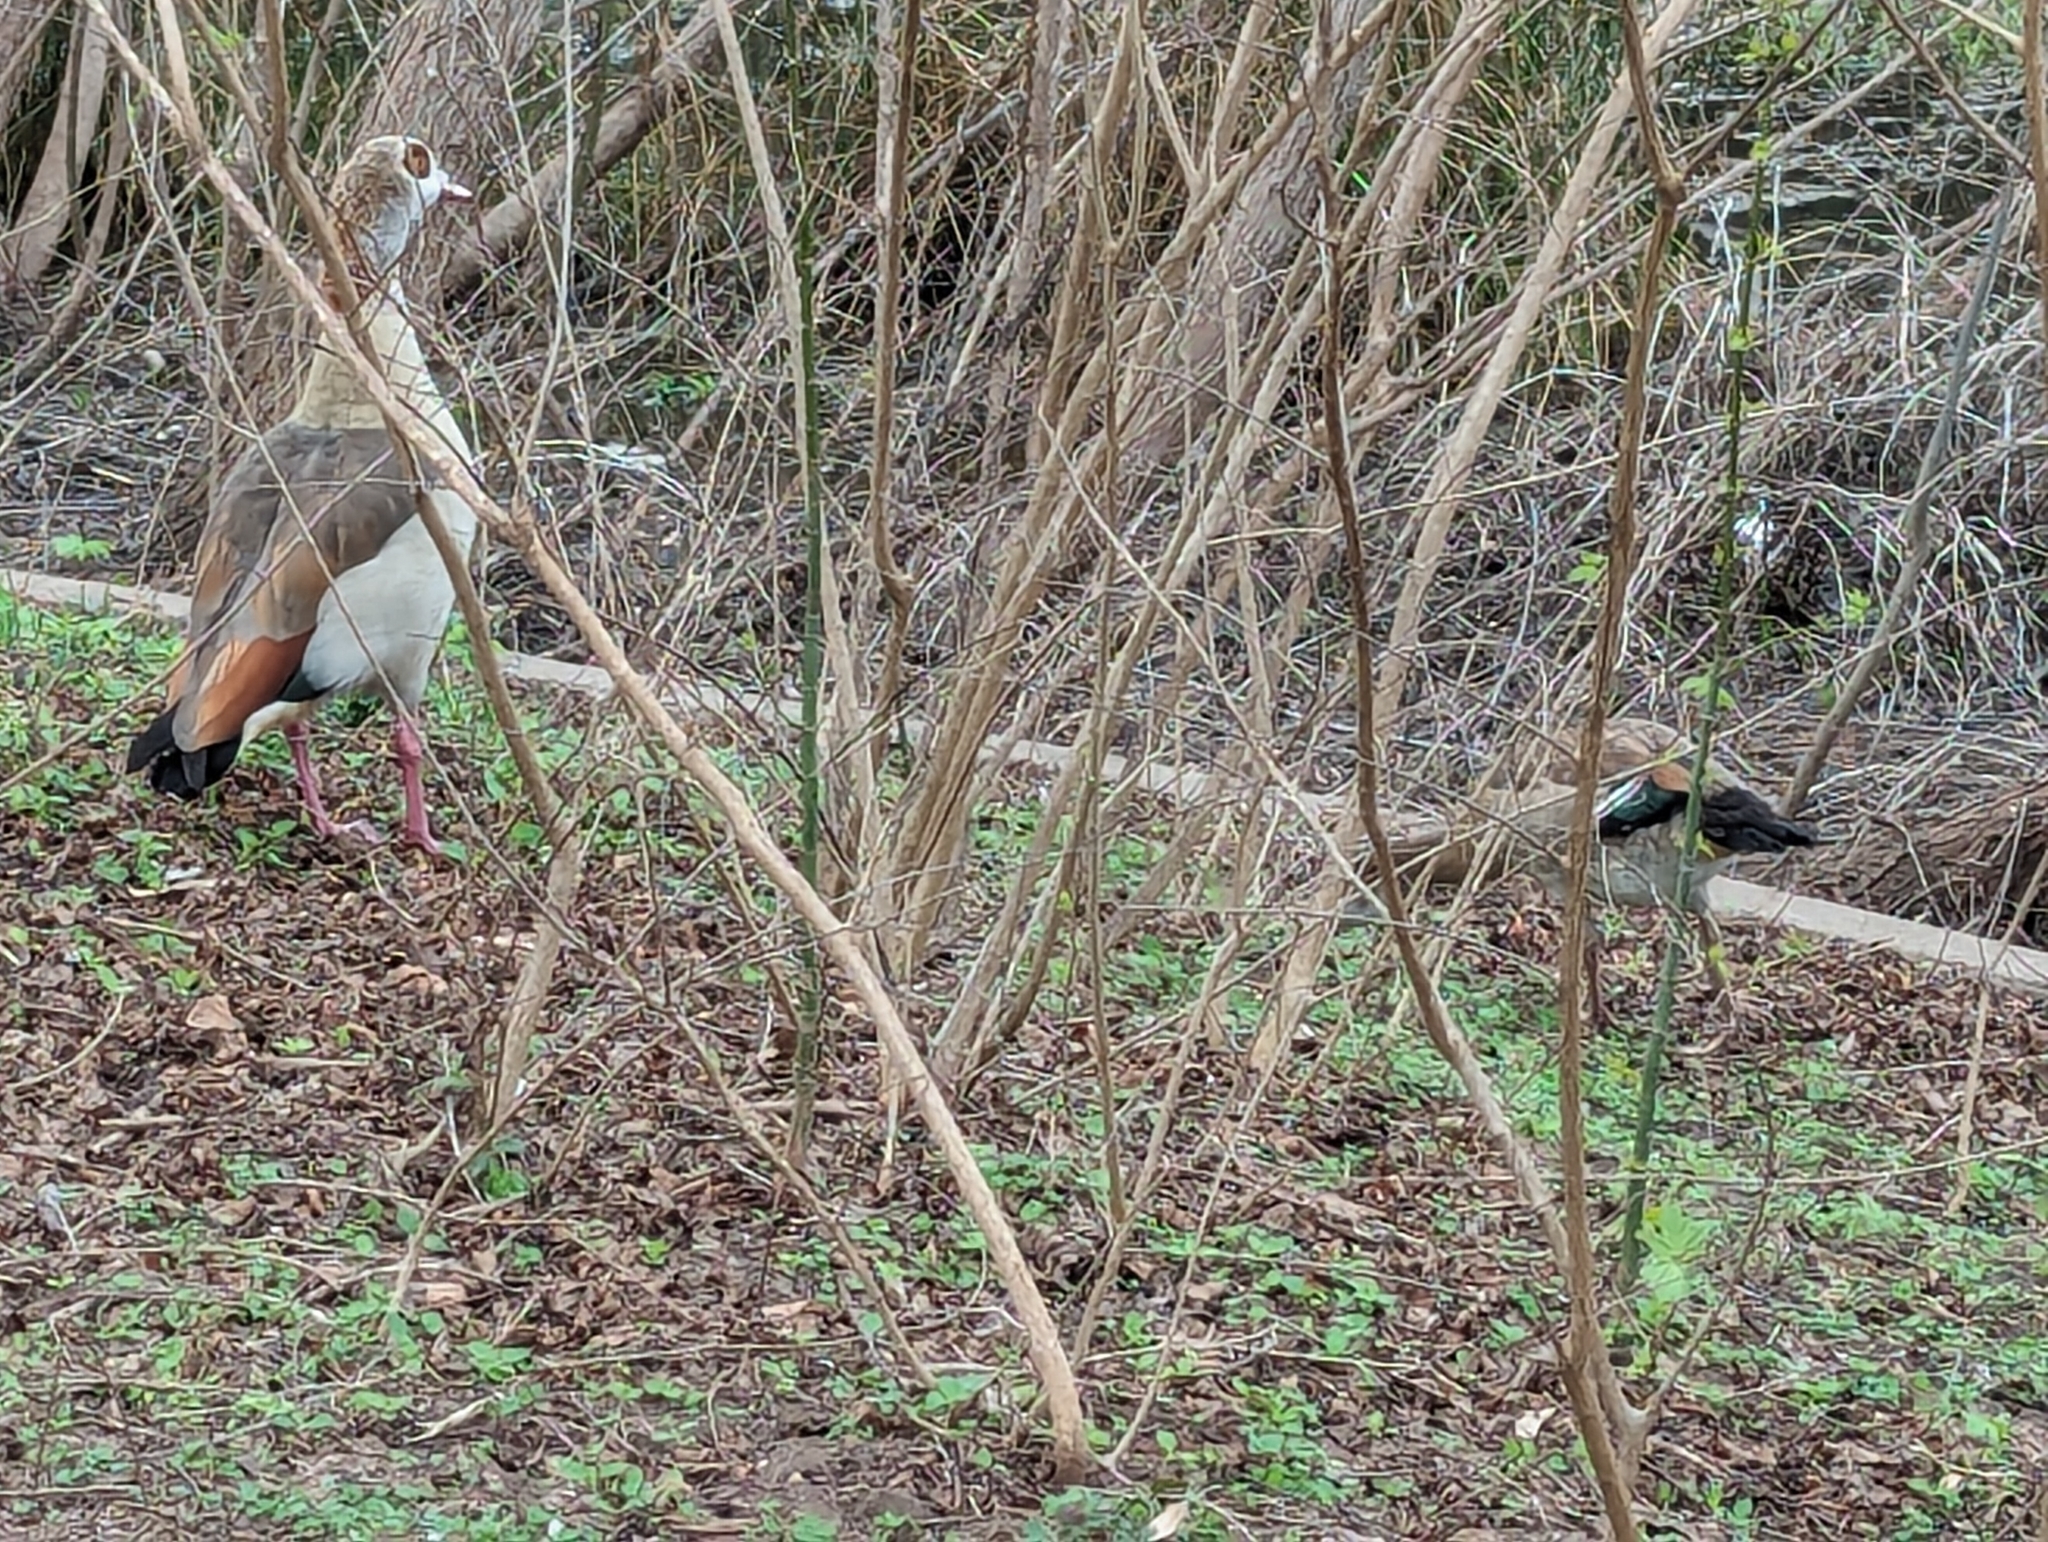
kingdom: Animalia
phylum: Chordata
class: Aves
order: Anseriformes
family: Anatidae
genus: Alopochen
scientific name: Alopochen aegyptiaca
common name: Egyptian goose
